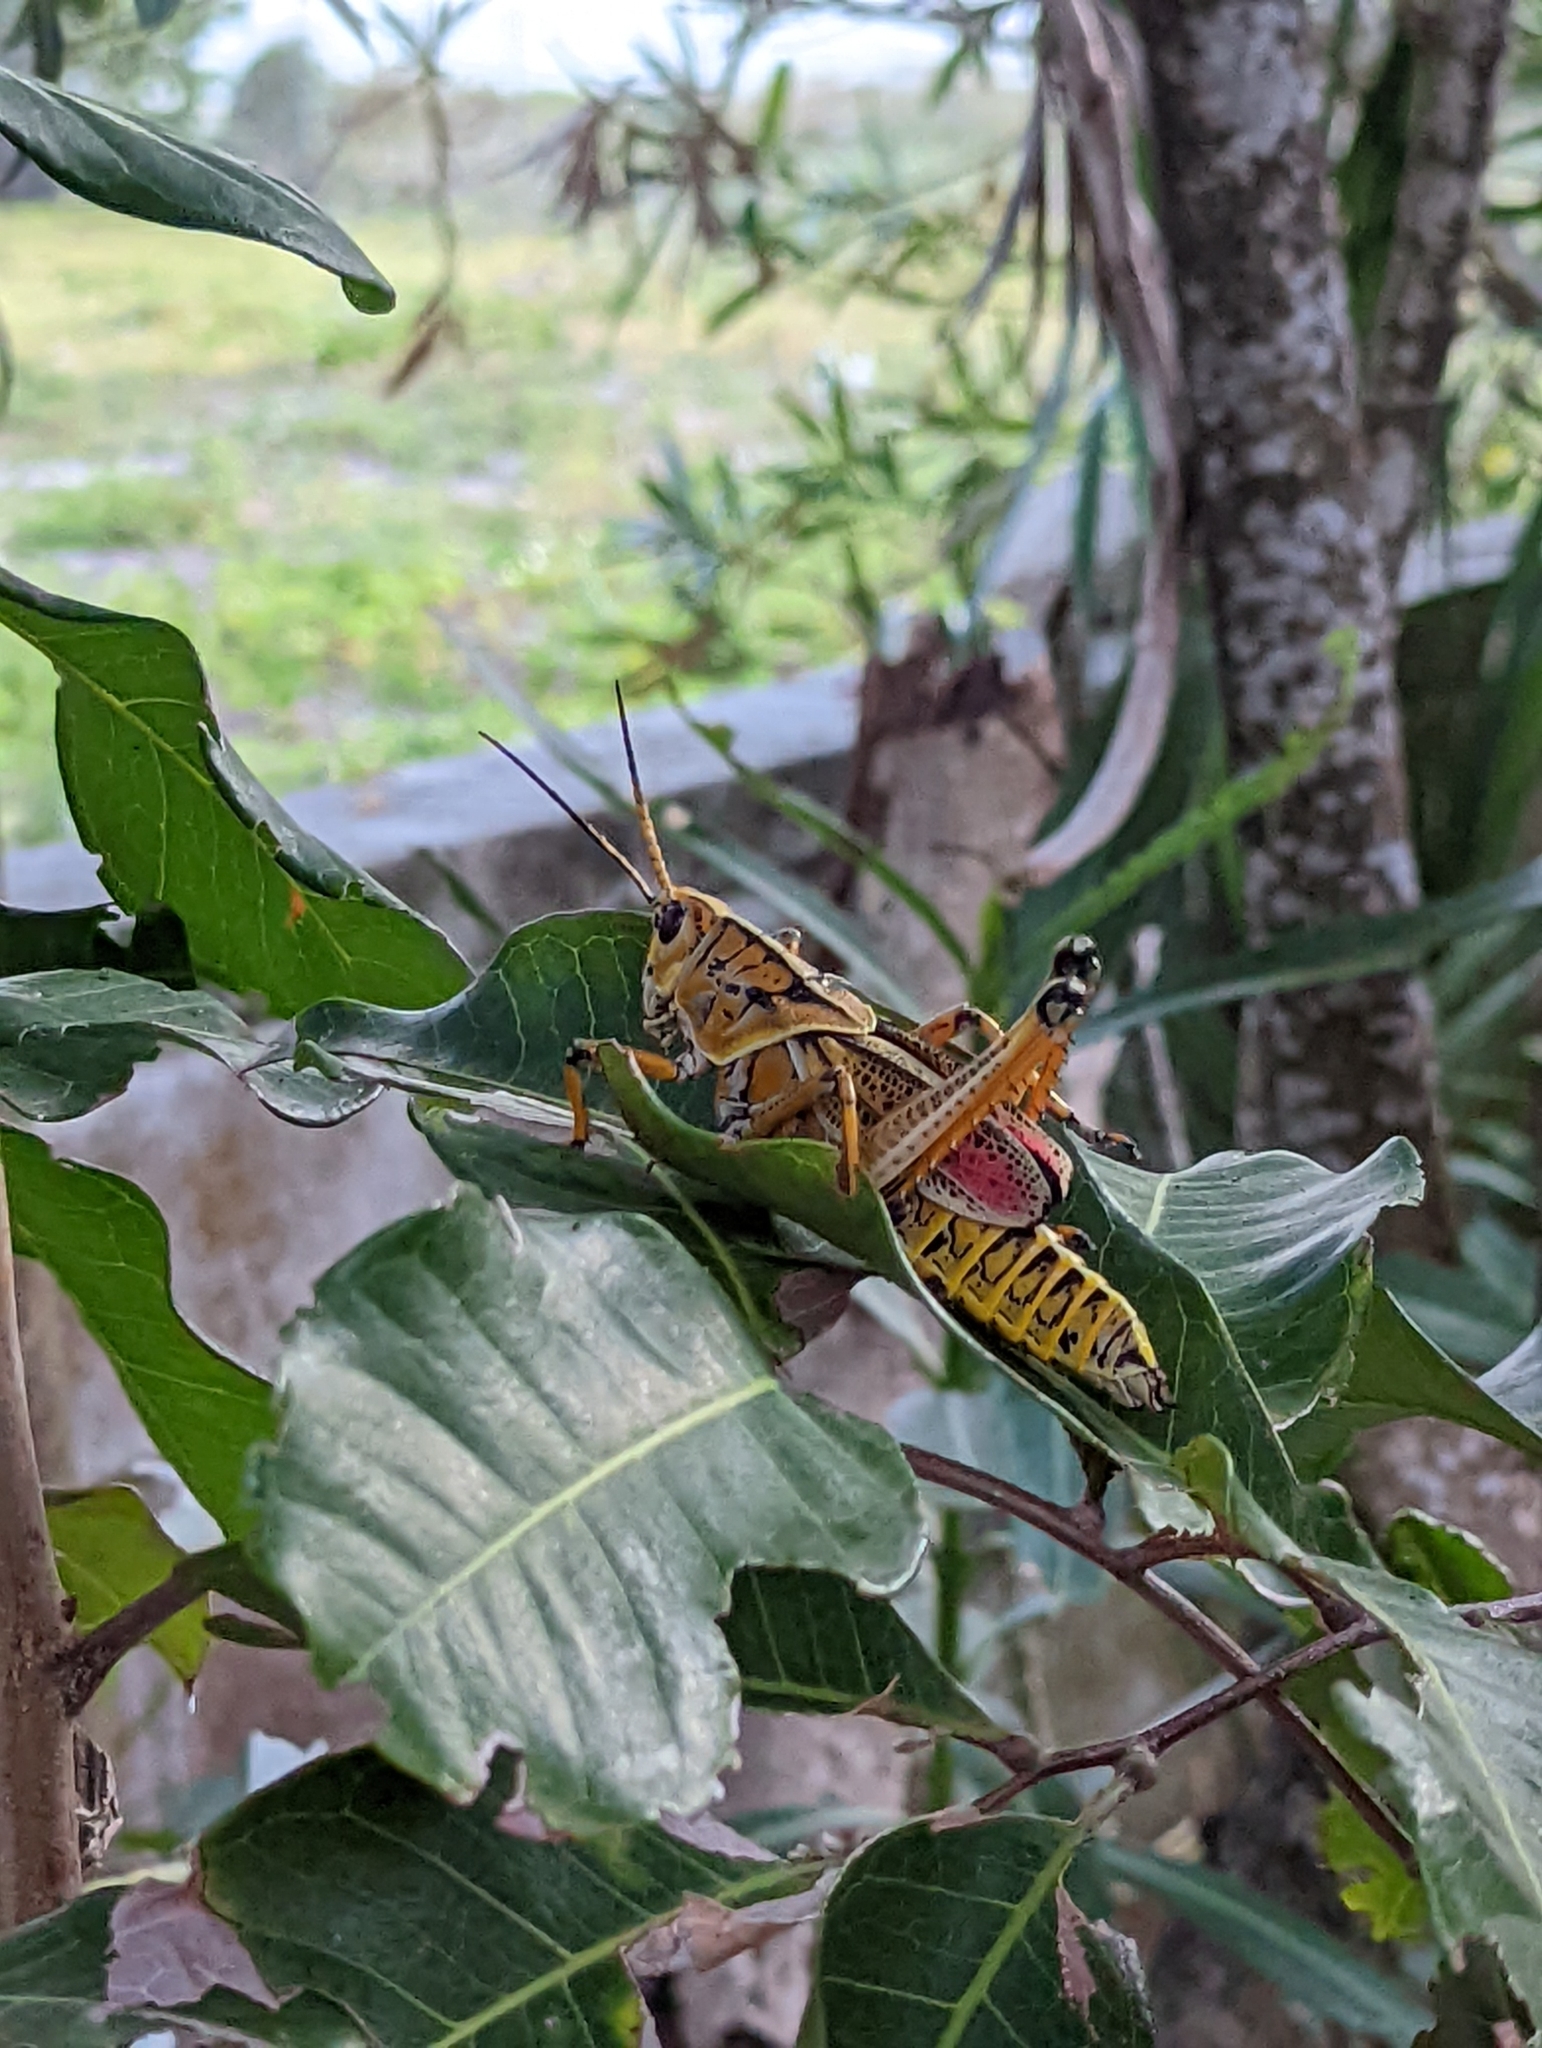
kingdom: Animalia
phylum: Arthropoda
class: Insecta
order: Orthoptera
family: Romaleidae
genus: Romalea
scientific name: Romalea microptera
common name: Eastern lubber grasshopper
